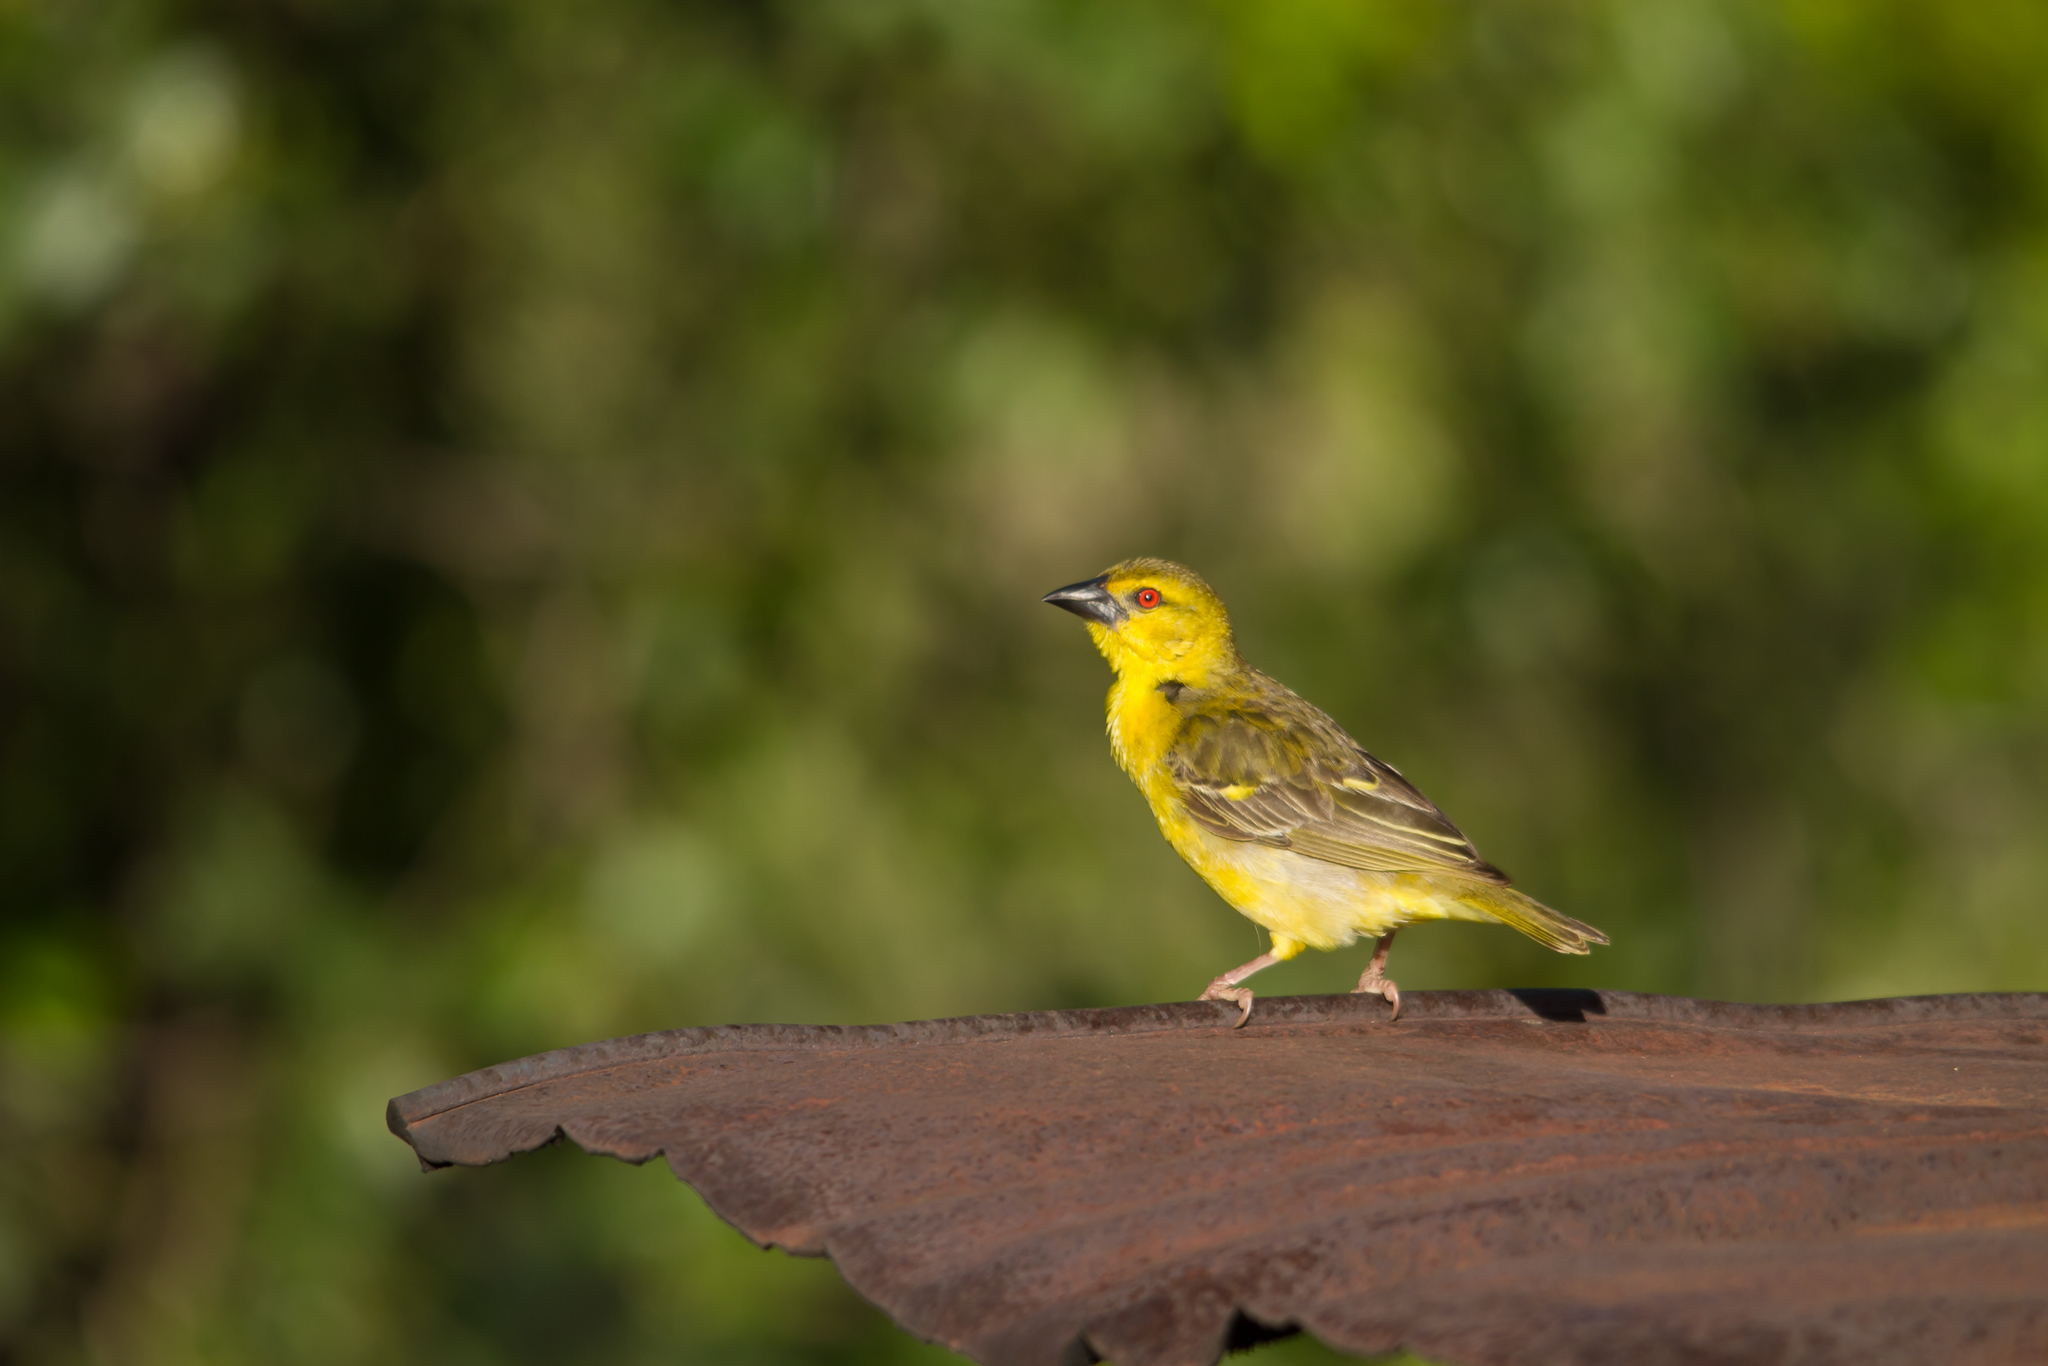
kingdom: Animalia
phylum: Chordata
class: Aves
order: Passeriformes
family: Ploceidae
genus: Ploceus
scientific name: Ploceus cucullatus
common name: Village weaver
